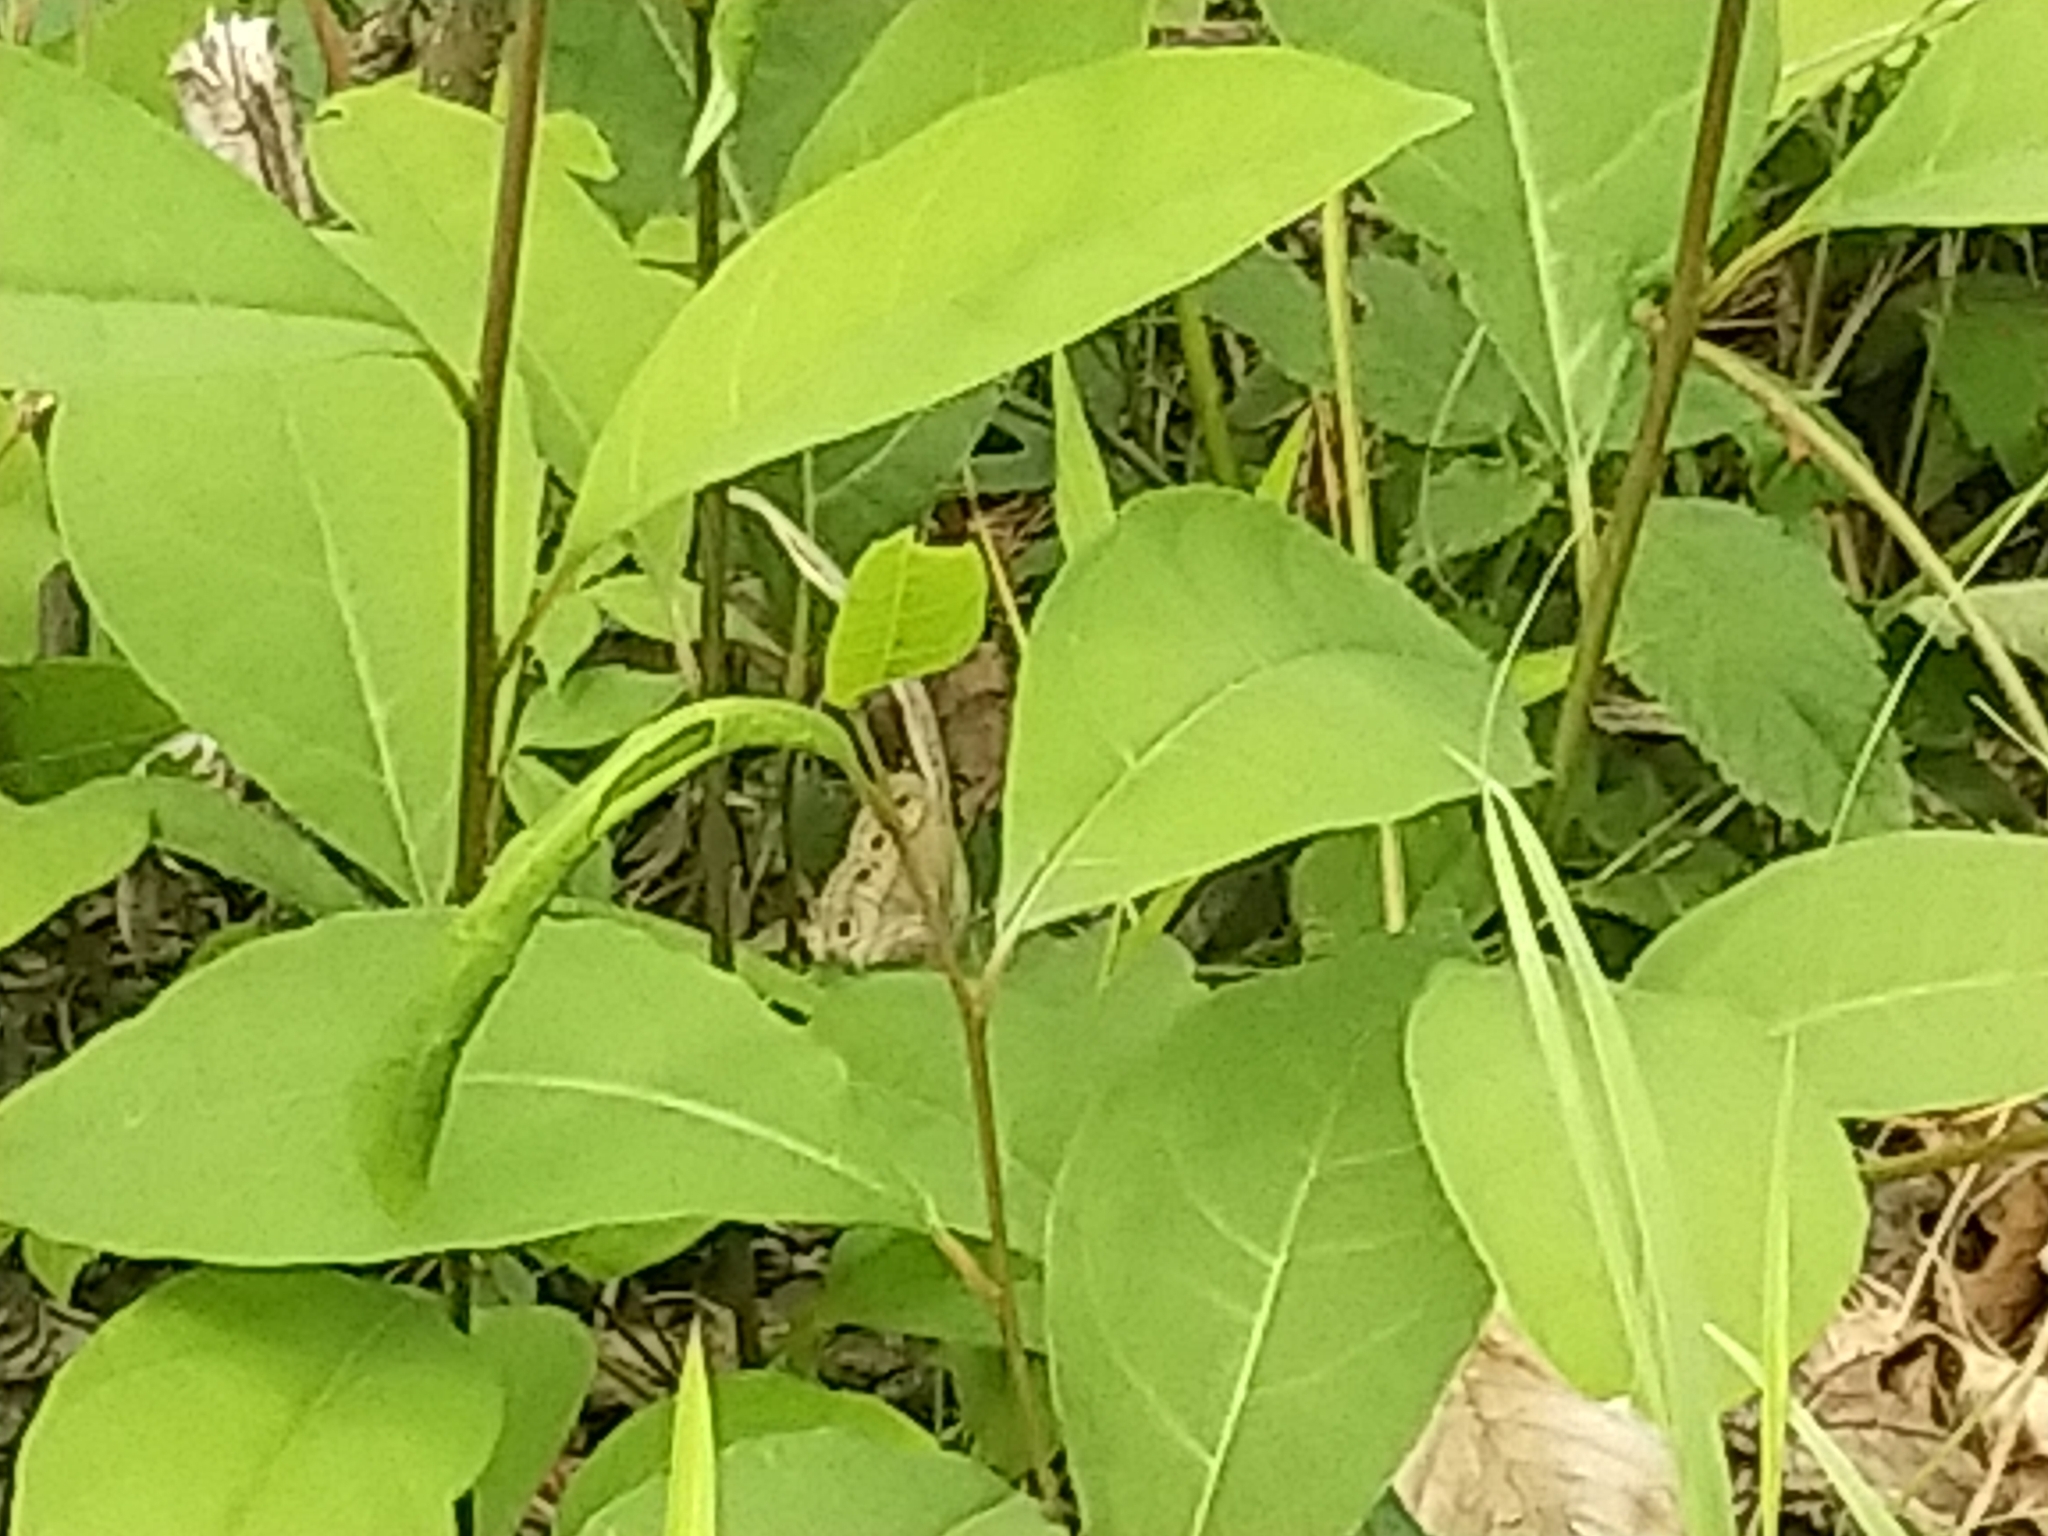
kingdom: Animalia
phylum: Arthropoda
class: Insecta
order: Lepidoptera
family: Nymphalidae
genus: Euptychia
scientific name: Euptychia cymela
